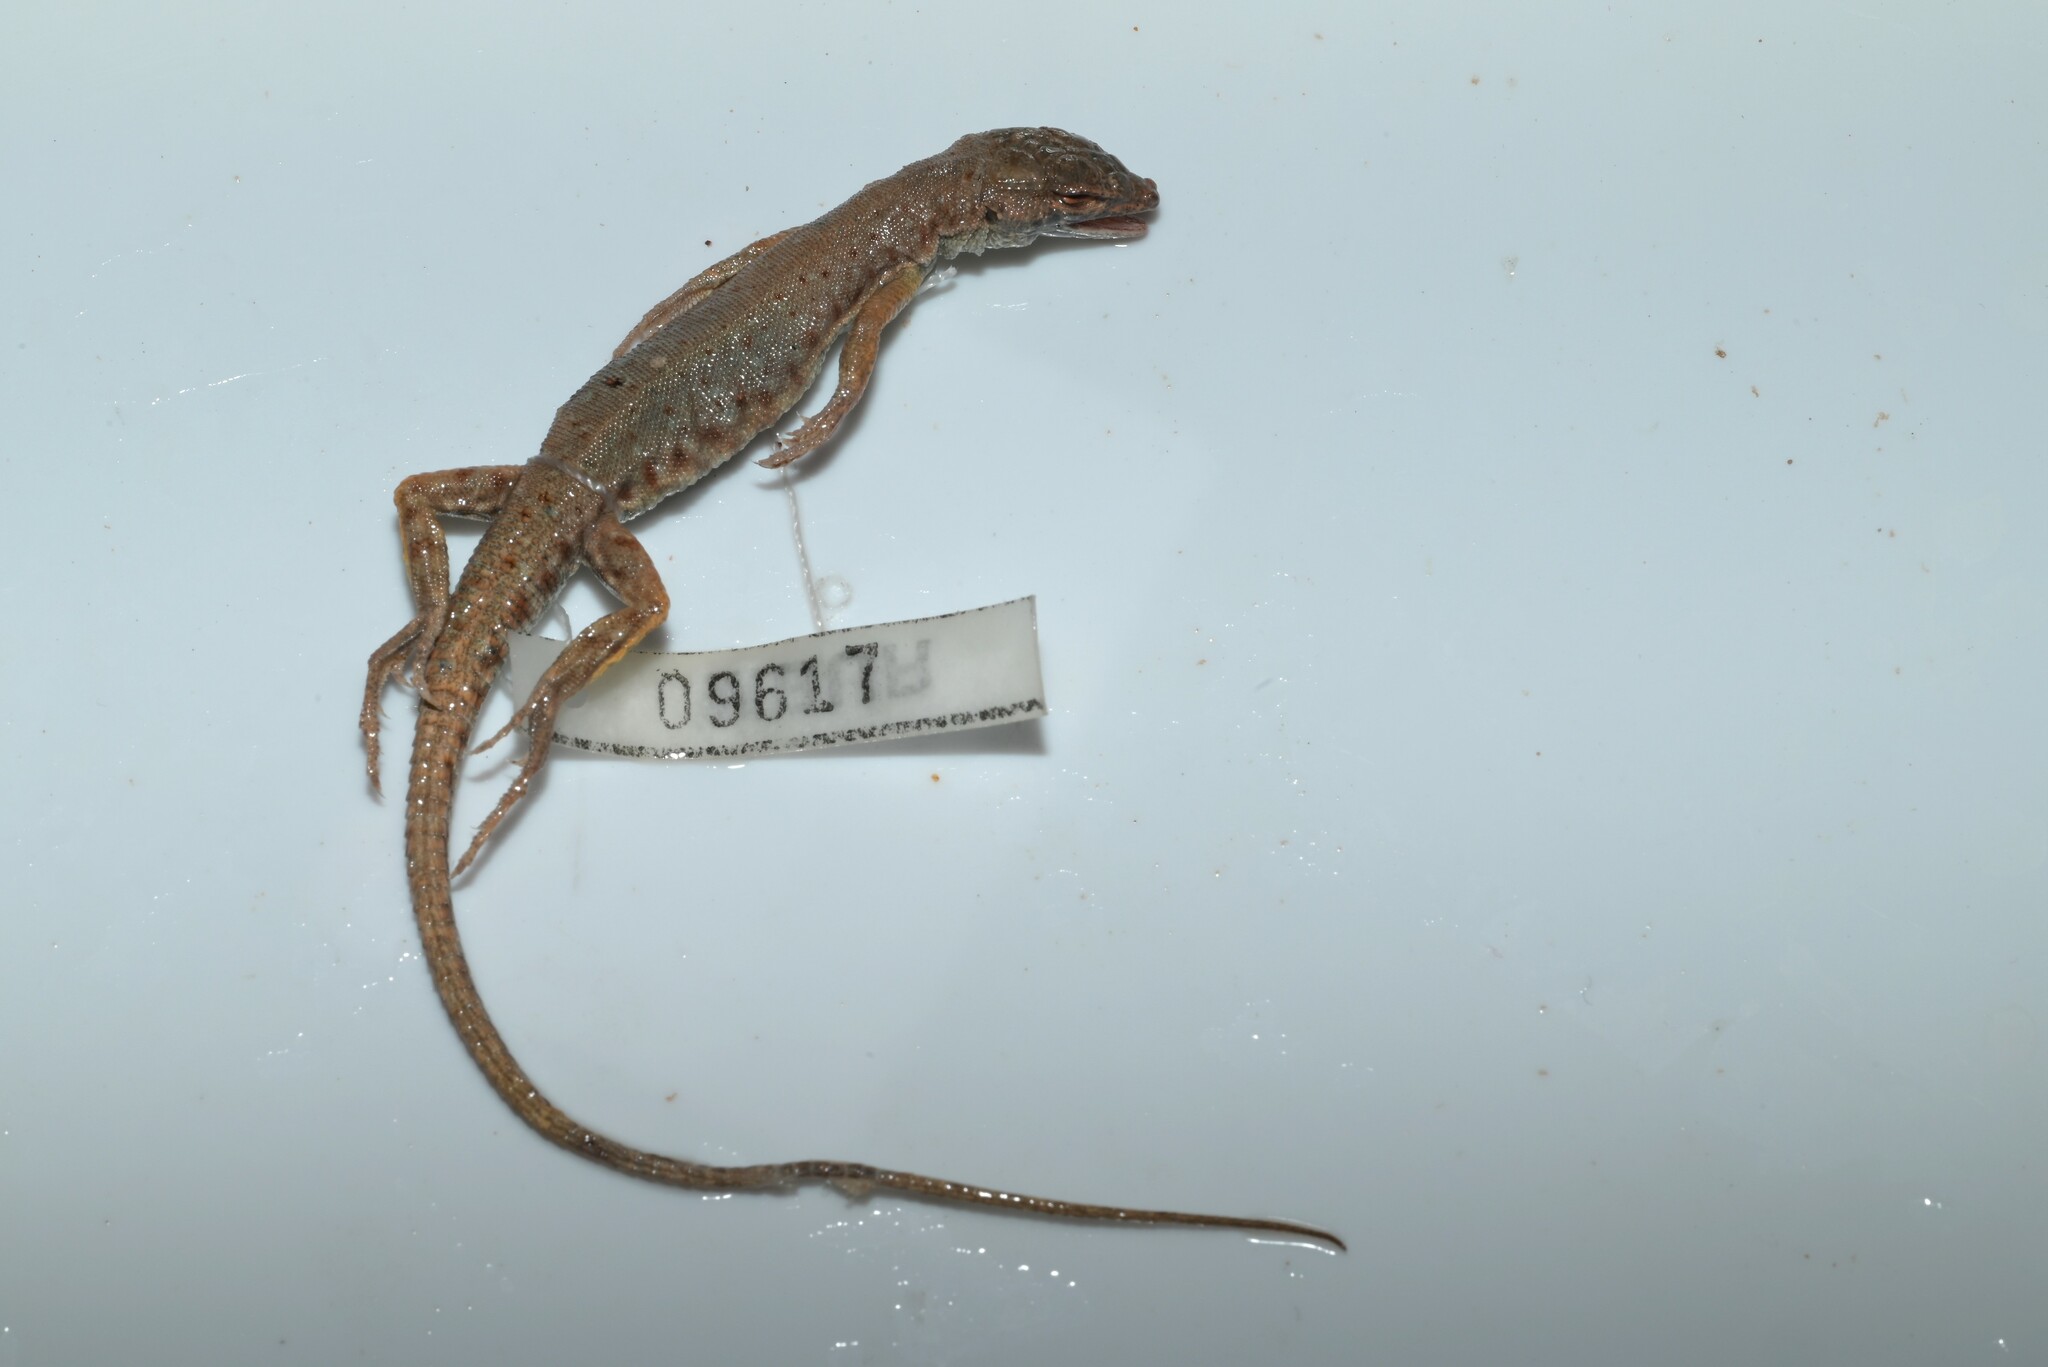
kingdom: Animalia
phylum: Chordata
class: Squamata
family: Lacertidae
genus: Mesalina
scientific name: Mesalina brevirostris
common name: Blanford's short-nosed desert lizard
